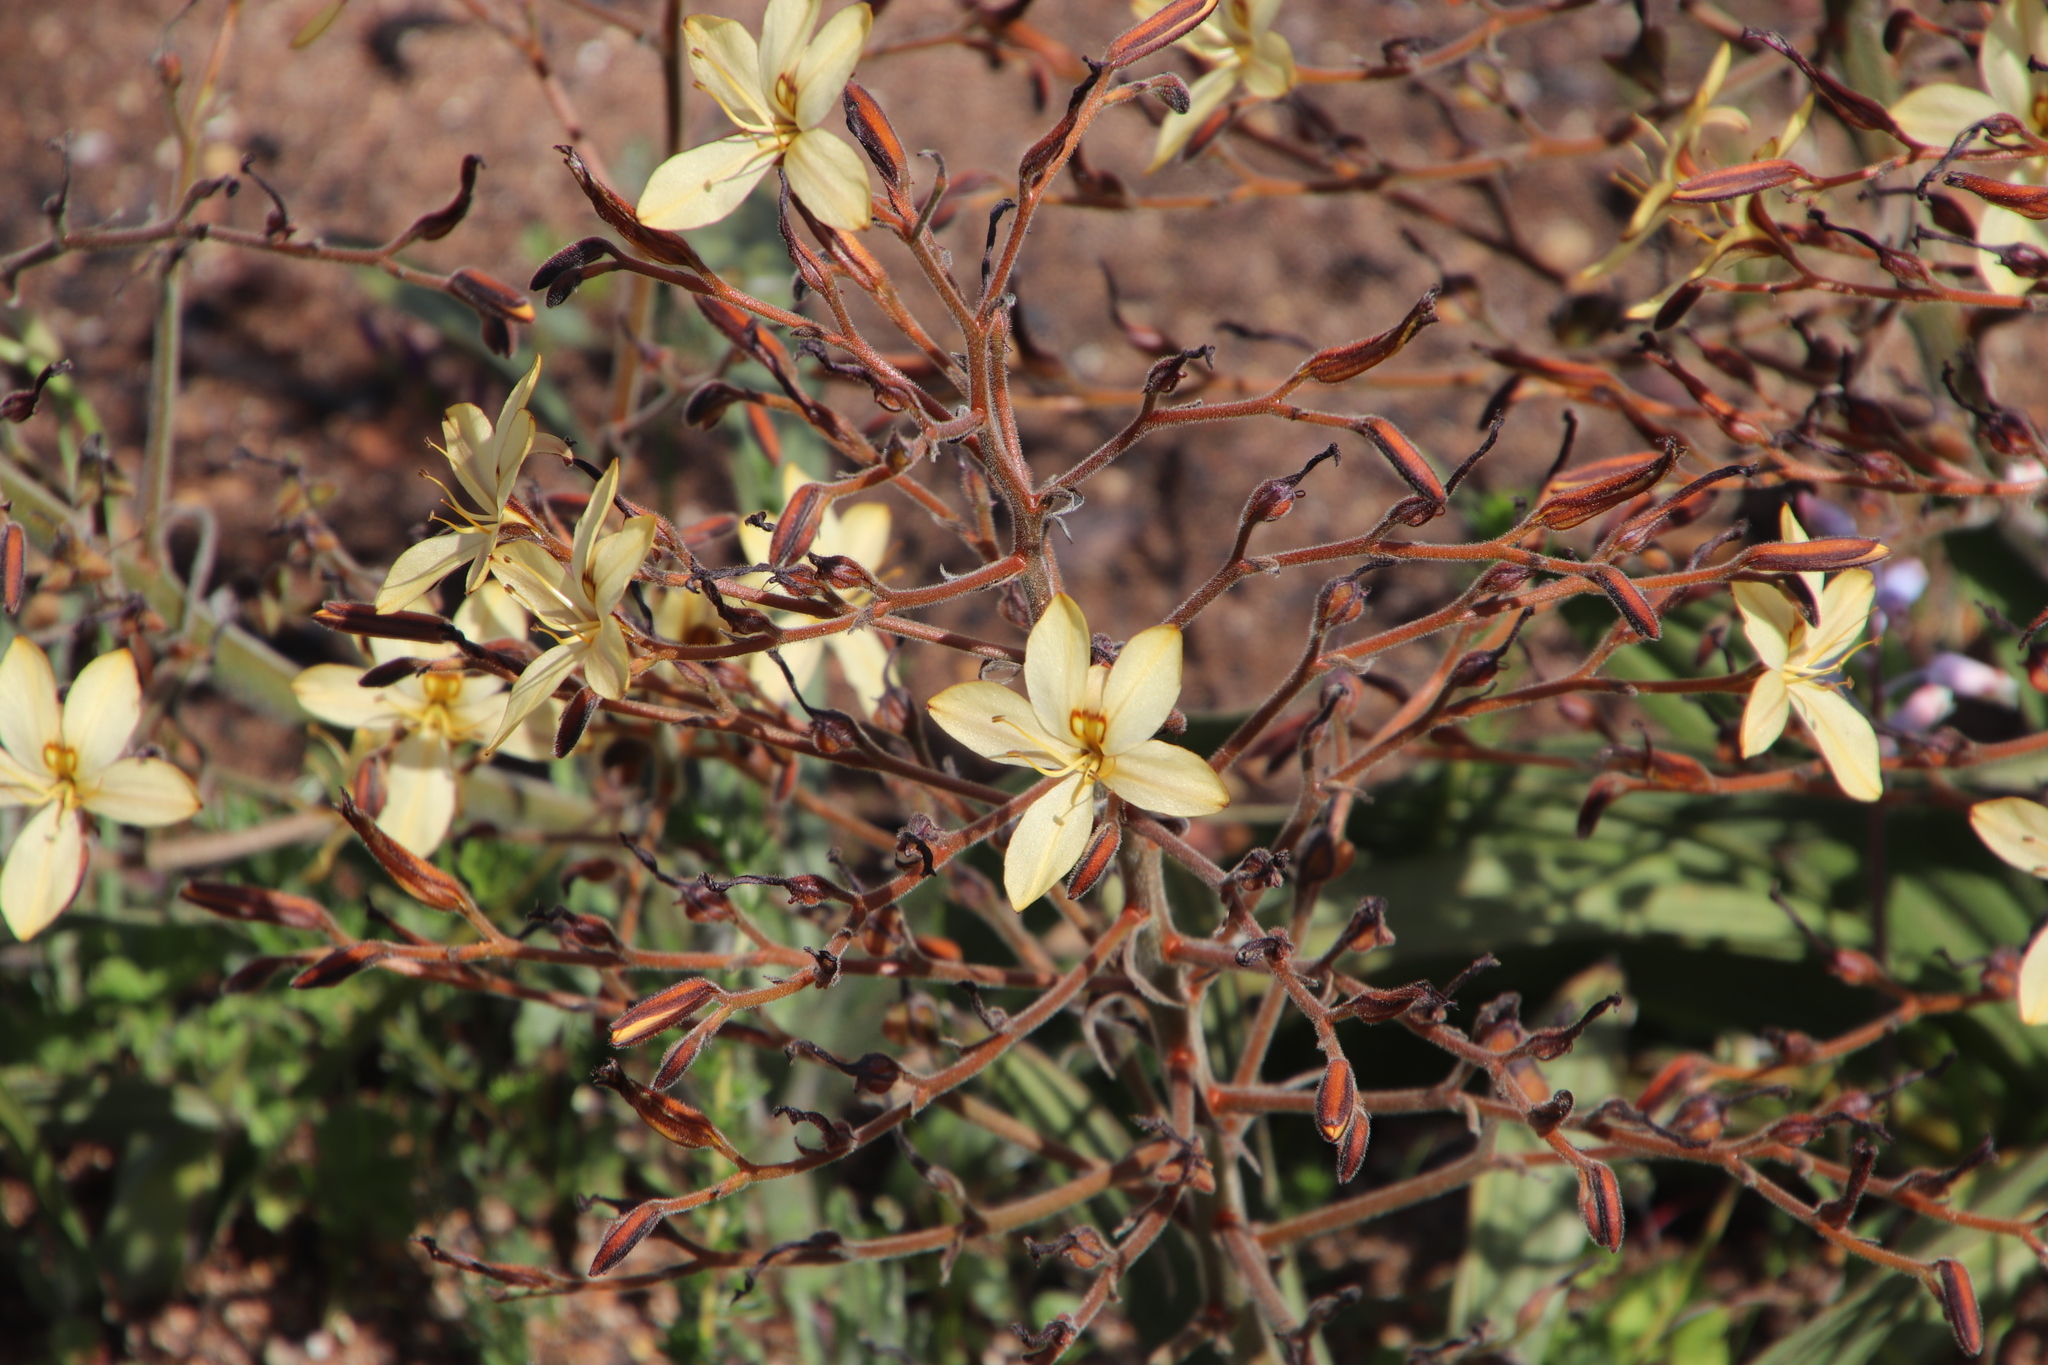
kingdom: Plantae
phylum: Tracheophyta
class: Liliopsida
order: Commelinales
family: Haemodoraceae
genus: Wachendorfia
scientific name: Wachendorfia paniculata
